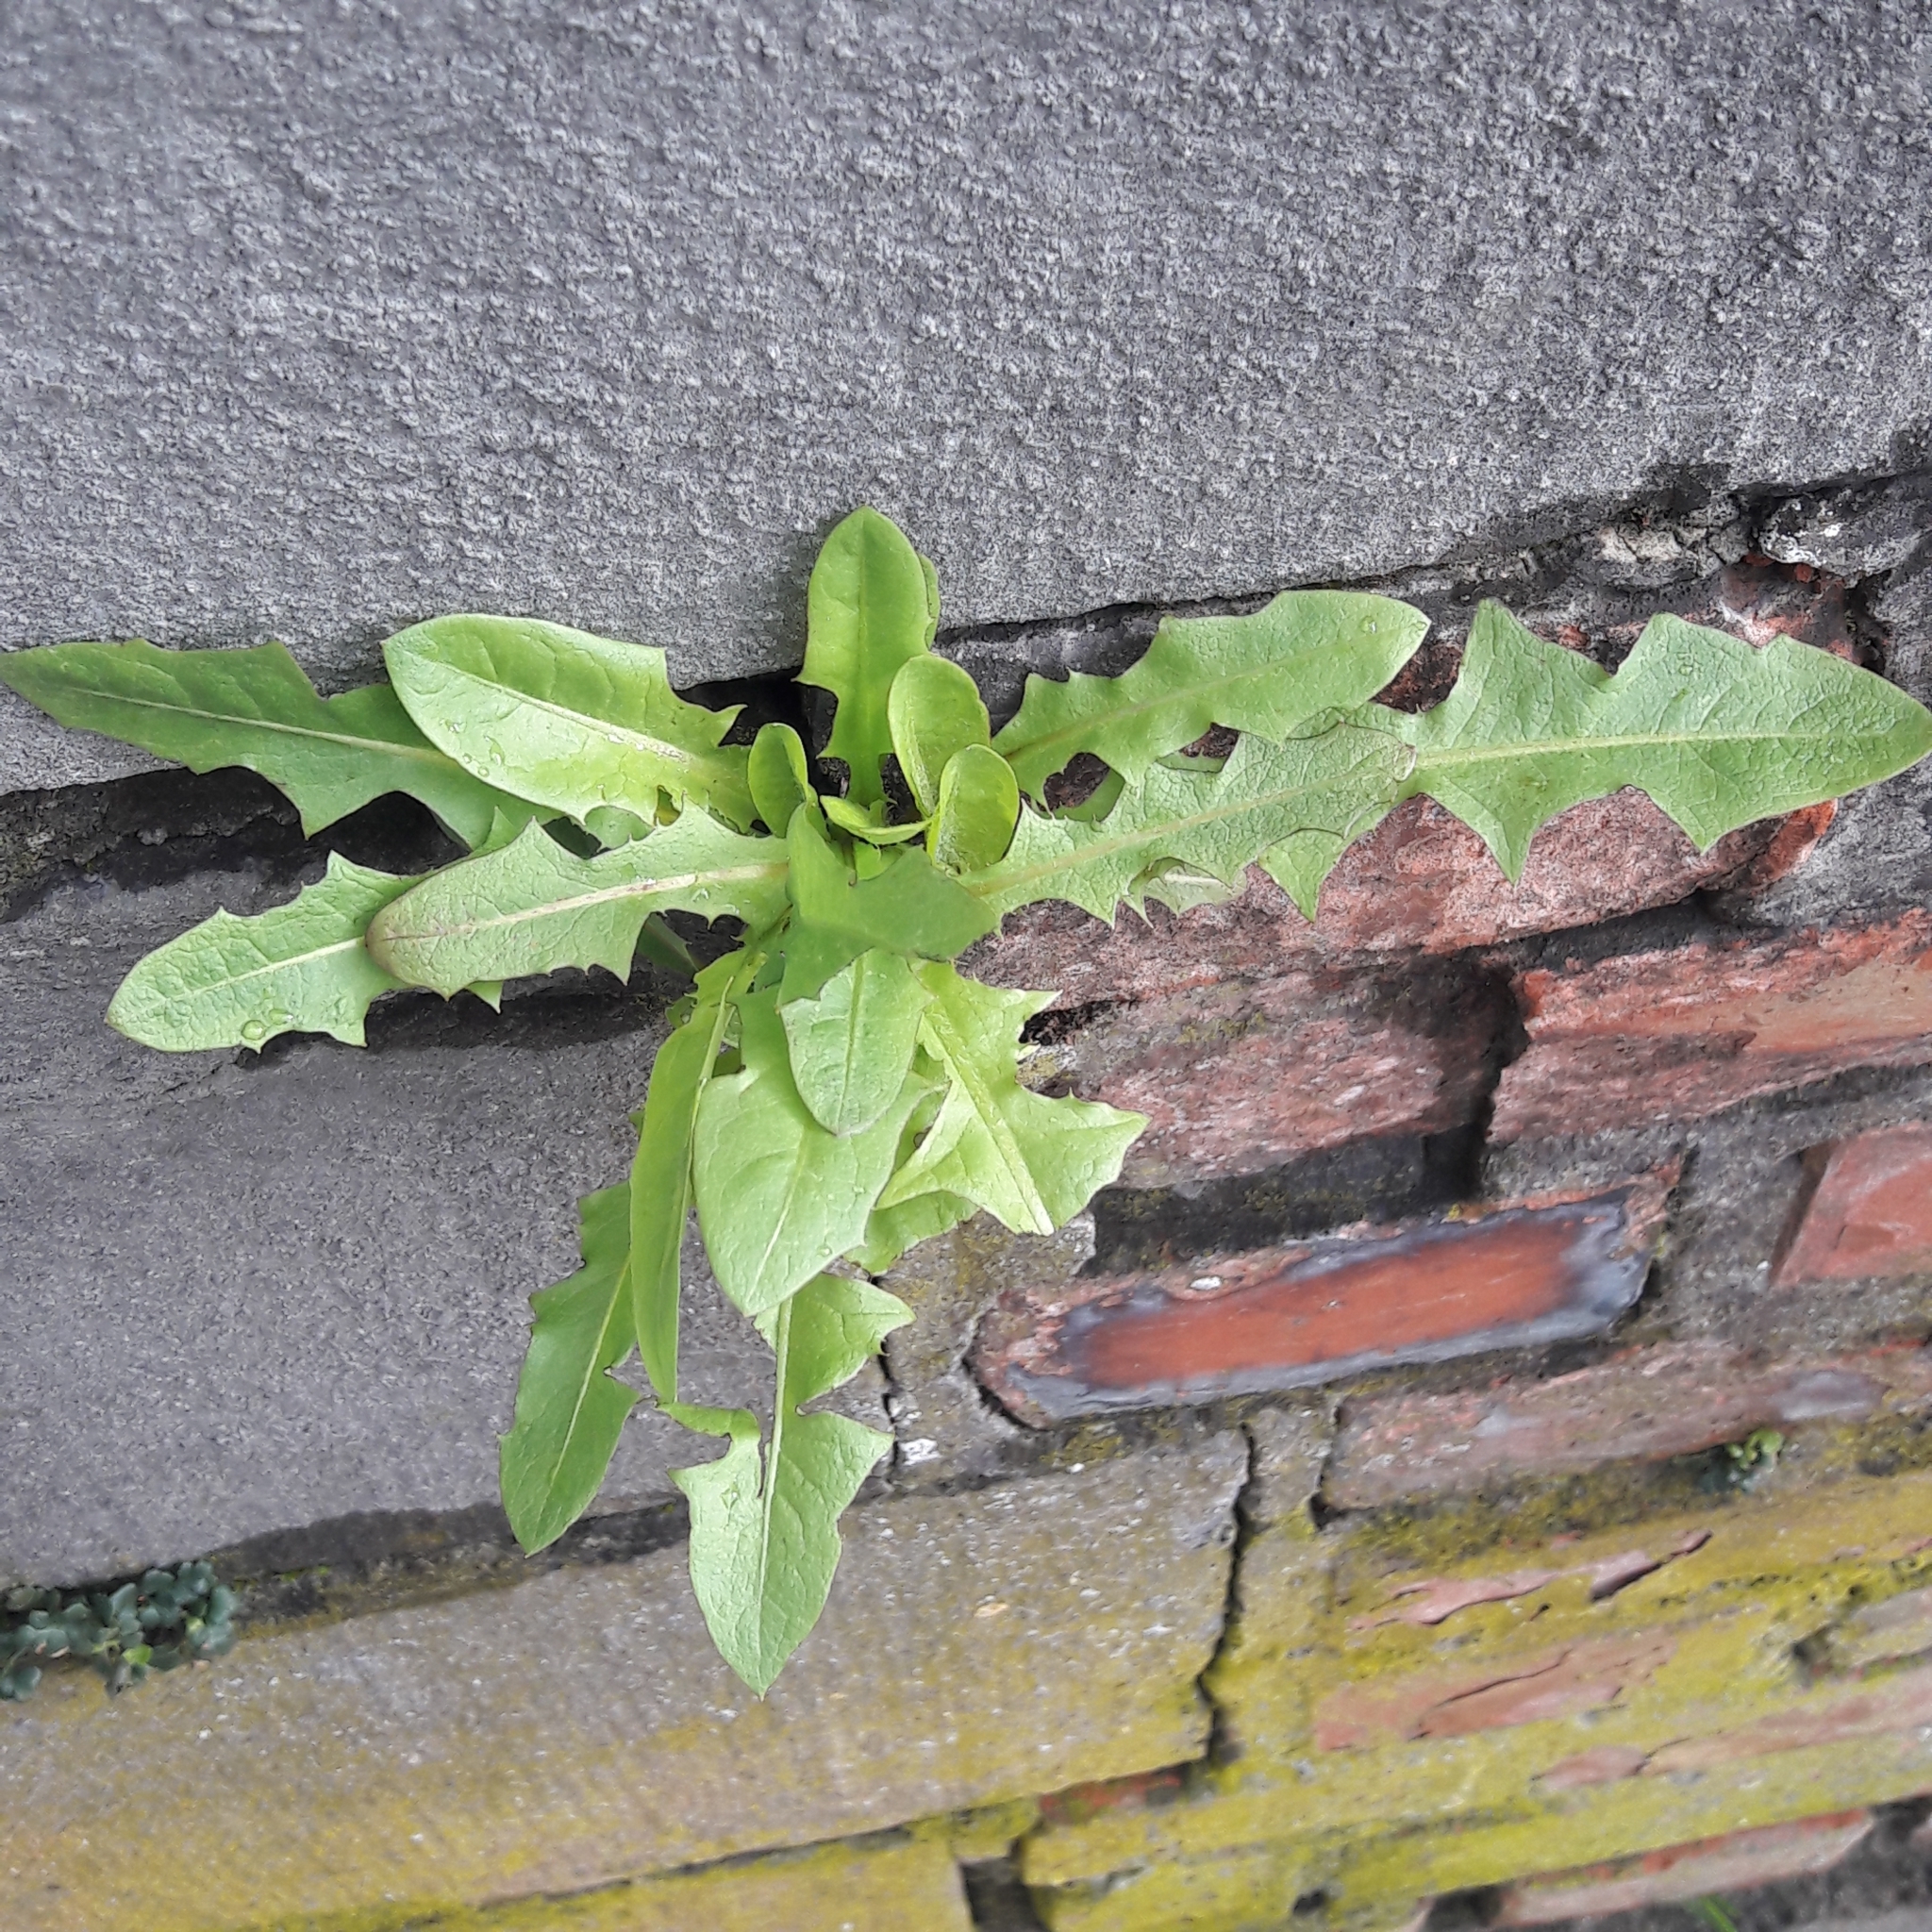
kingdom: Plantae
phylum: Tracheophyta
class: Magnoliopsida
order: Asterales
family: Asteraceae
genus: Taraxacum
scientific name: Taraxacum officinale
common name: Common dandelion
